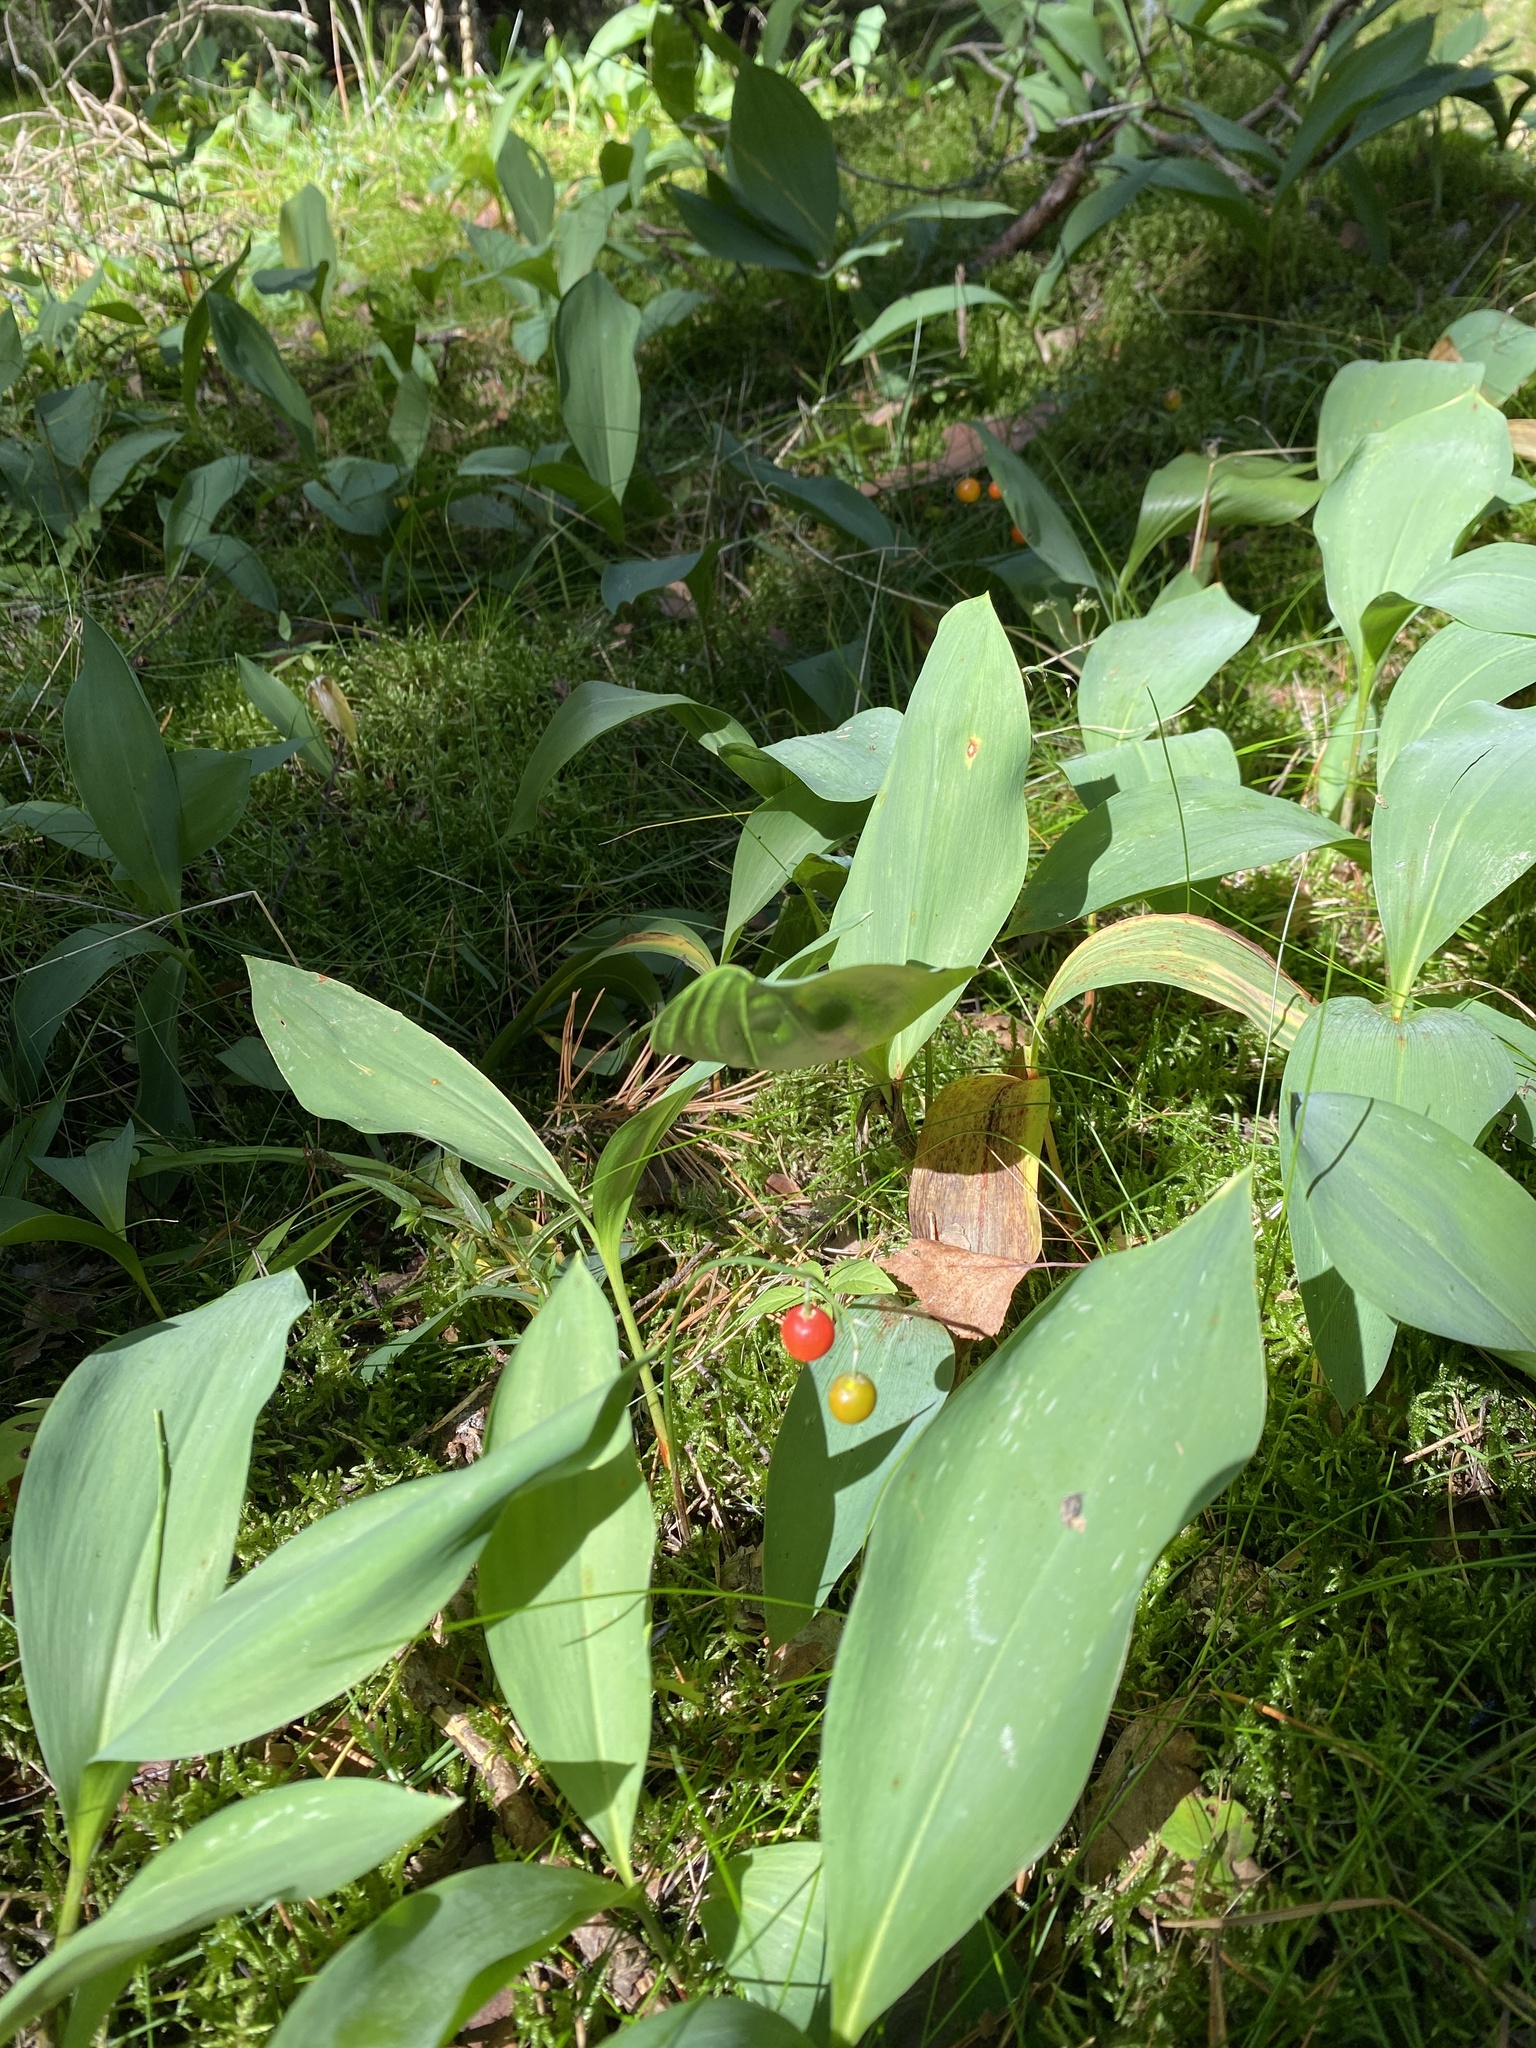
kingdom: Plantae
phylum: Tracheophyta
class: Liliopsida
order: Asparagales
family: Asparagaceae
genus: Convallaria
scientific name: Convallaria majalis
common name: Lily-of-the-valley
